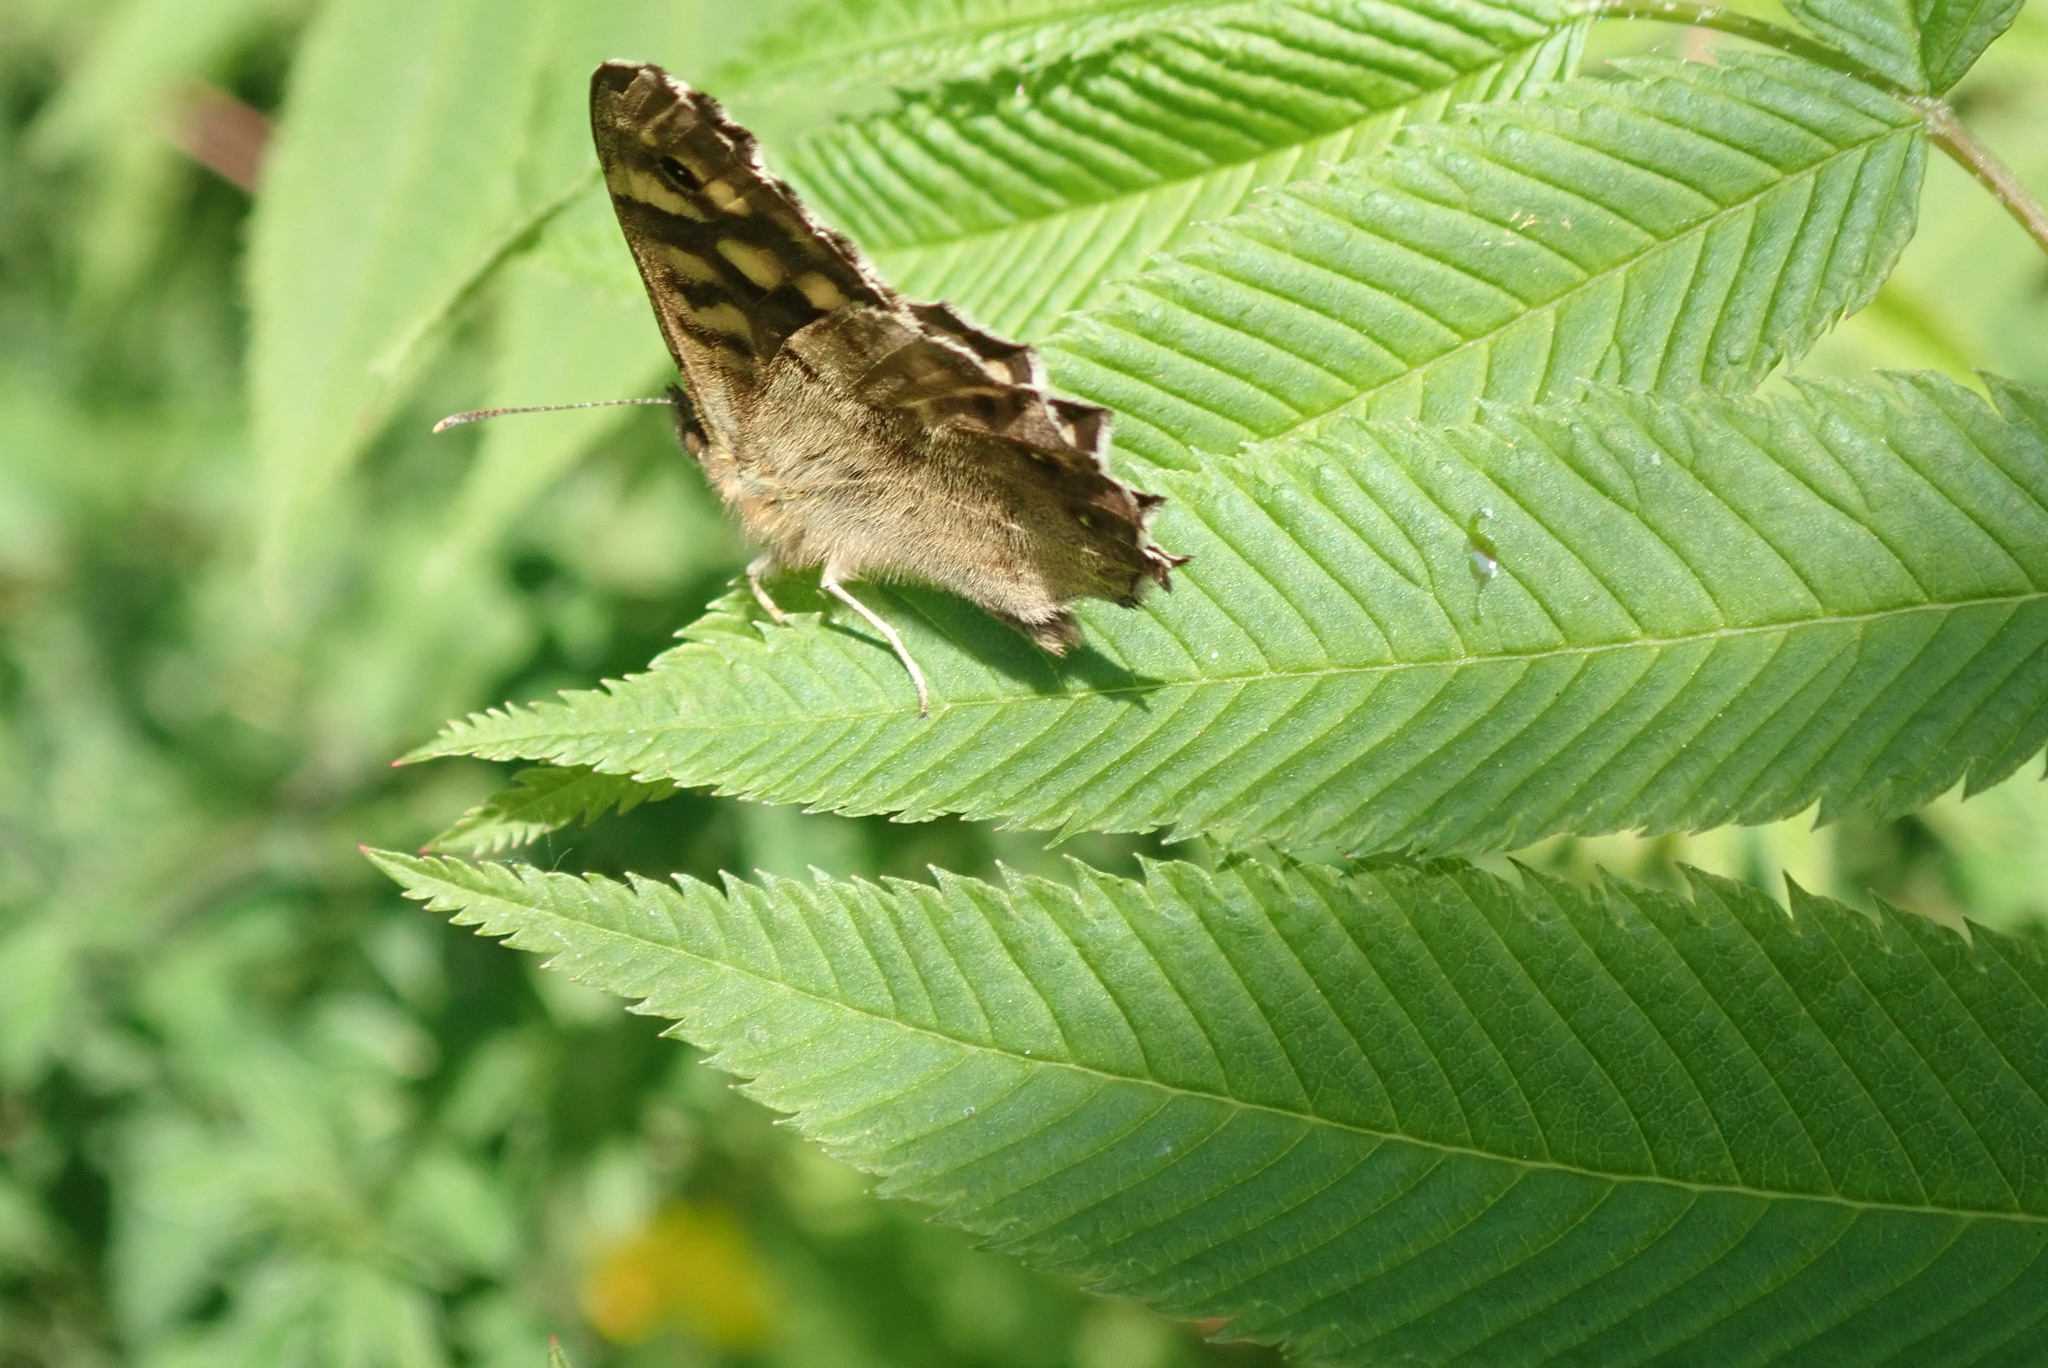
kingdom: Animalia
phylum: Arthropoda
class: Insecta
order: Lepidoptera
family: Nymphalidae
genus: Pararge
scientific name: Pararge aegeria
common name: Speckled wood
